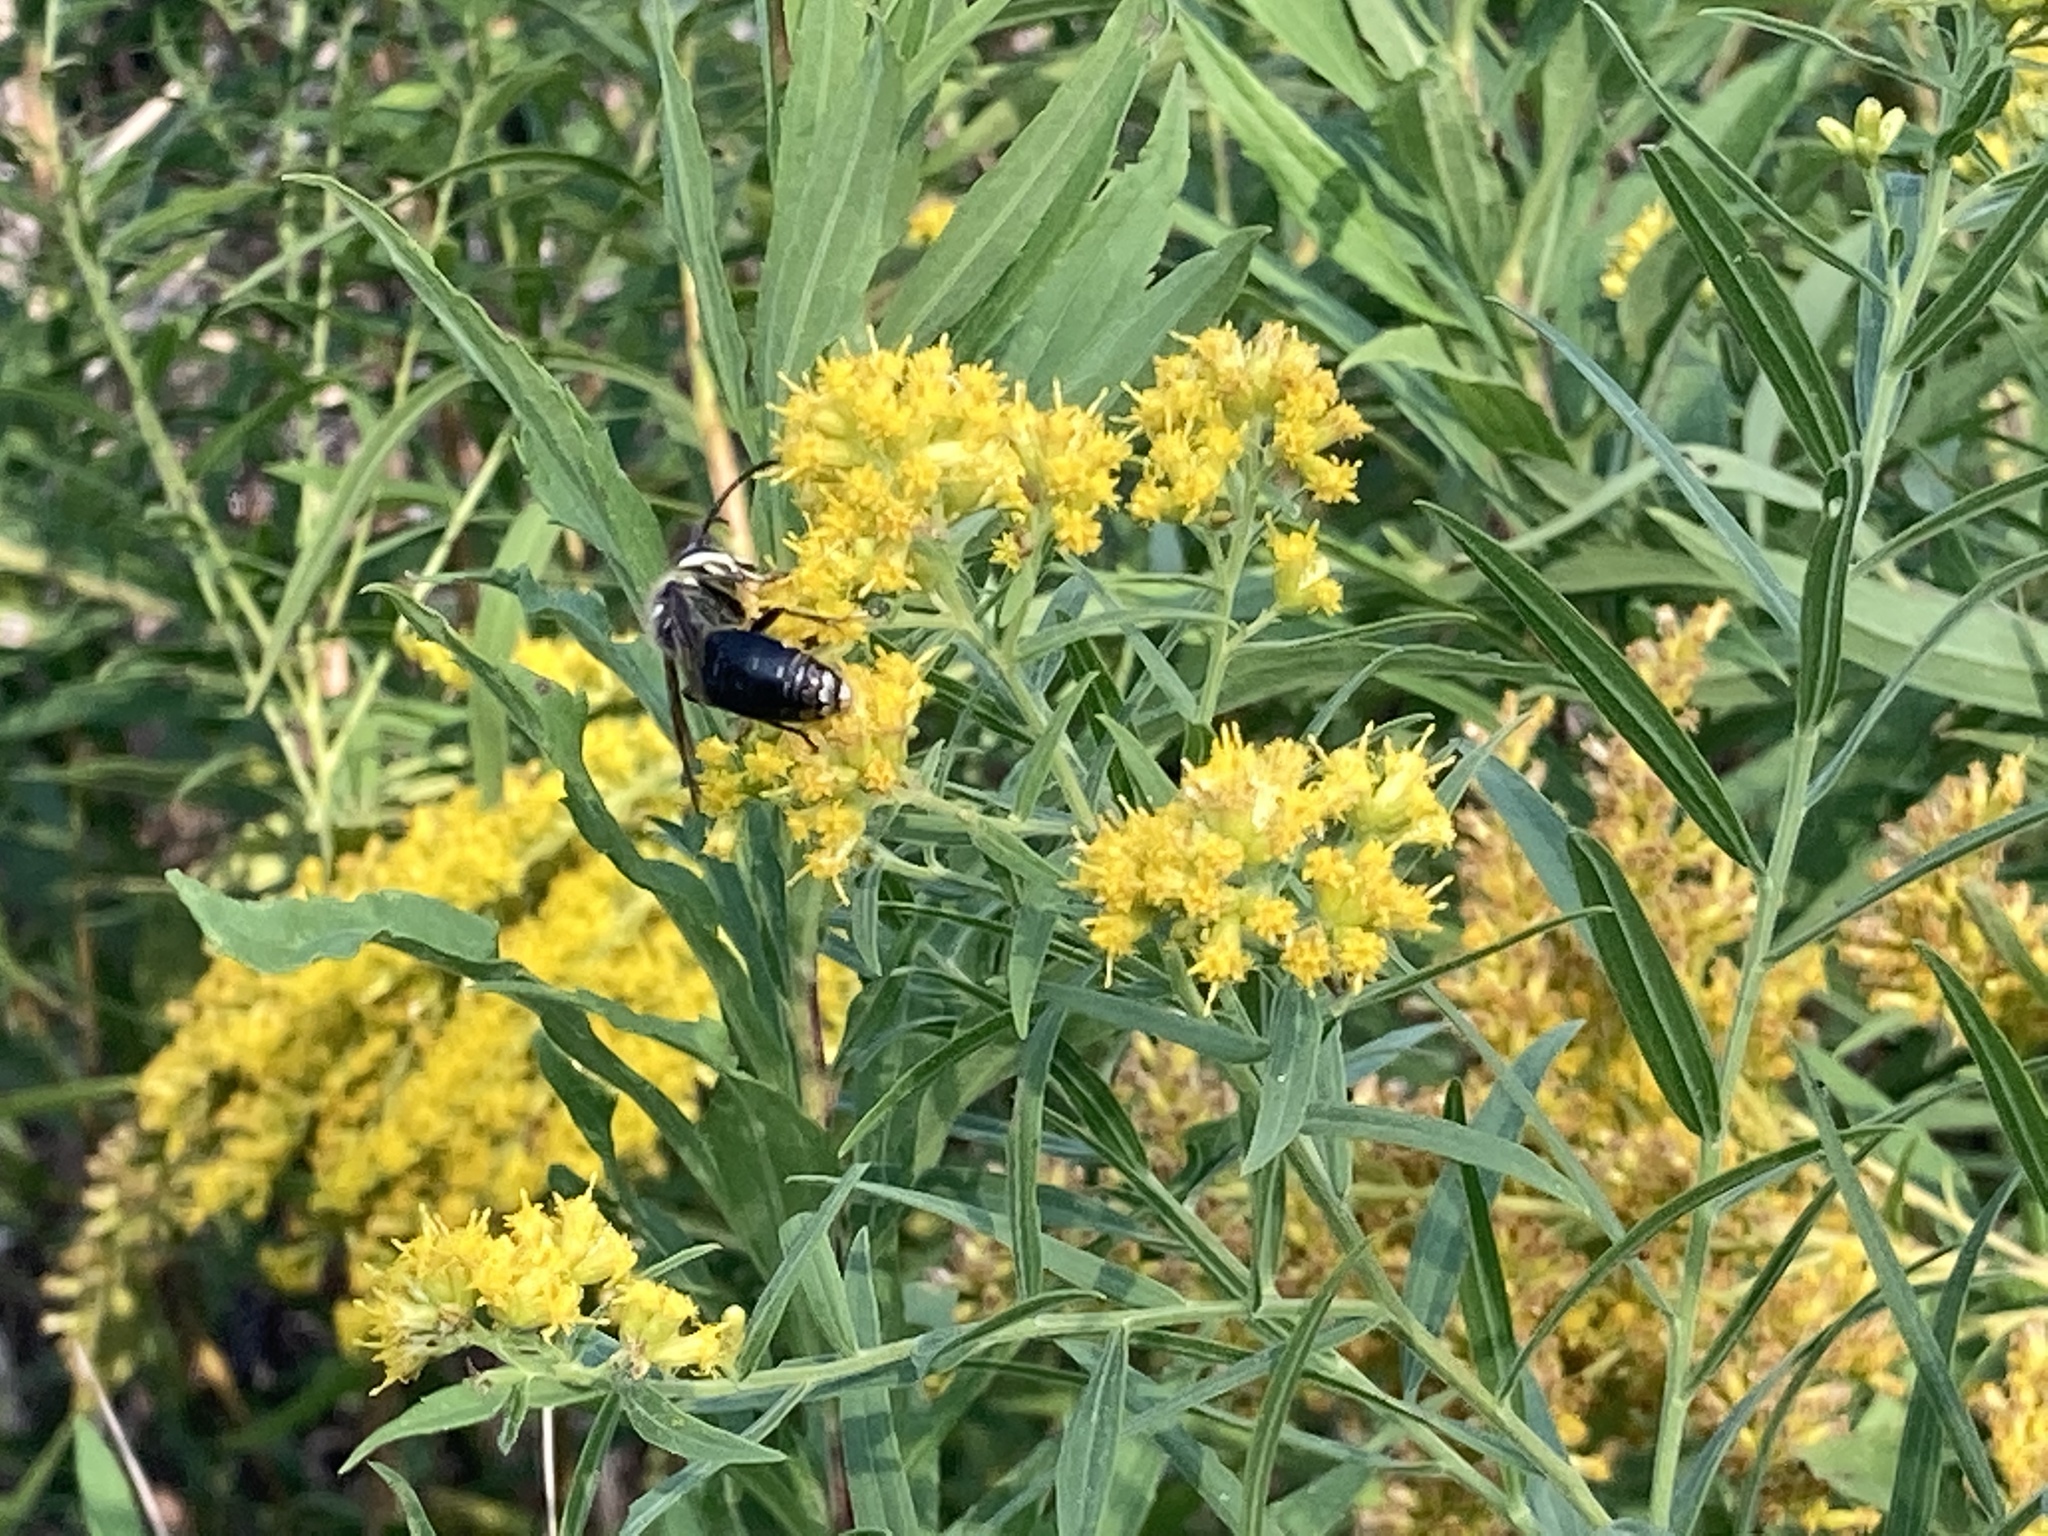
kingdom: Animalia
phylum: Arthropoda
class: Insecta
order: Hymenoptera
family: Vespidae
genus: Dolichovespula
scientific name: Dolichovespula maculata
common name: Bald-faced hornet
